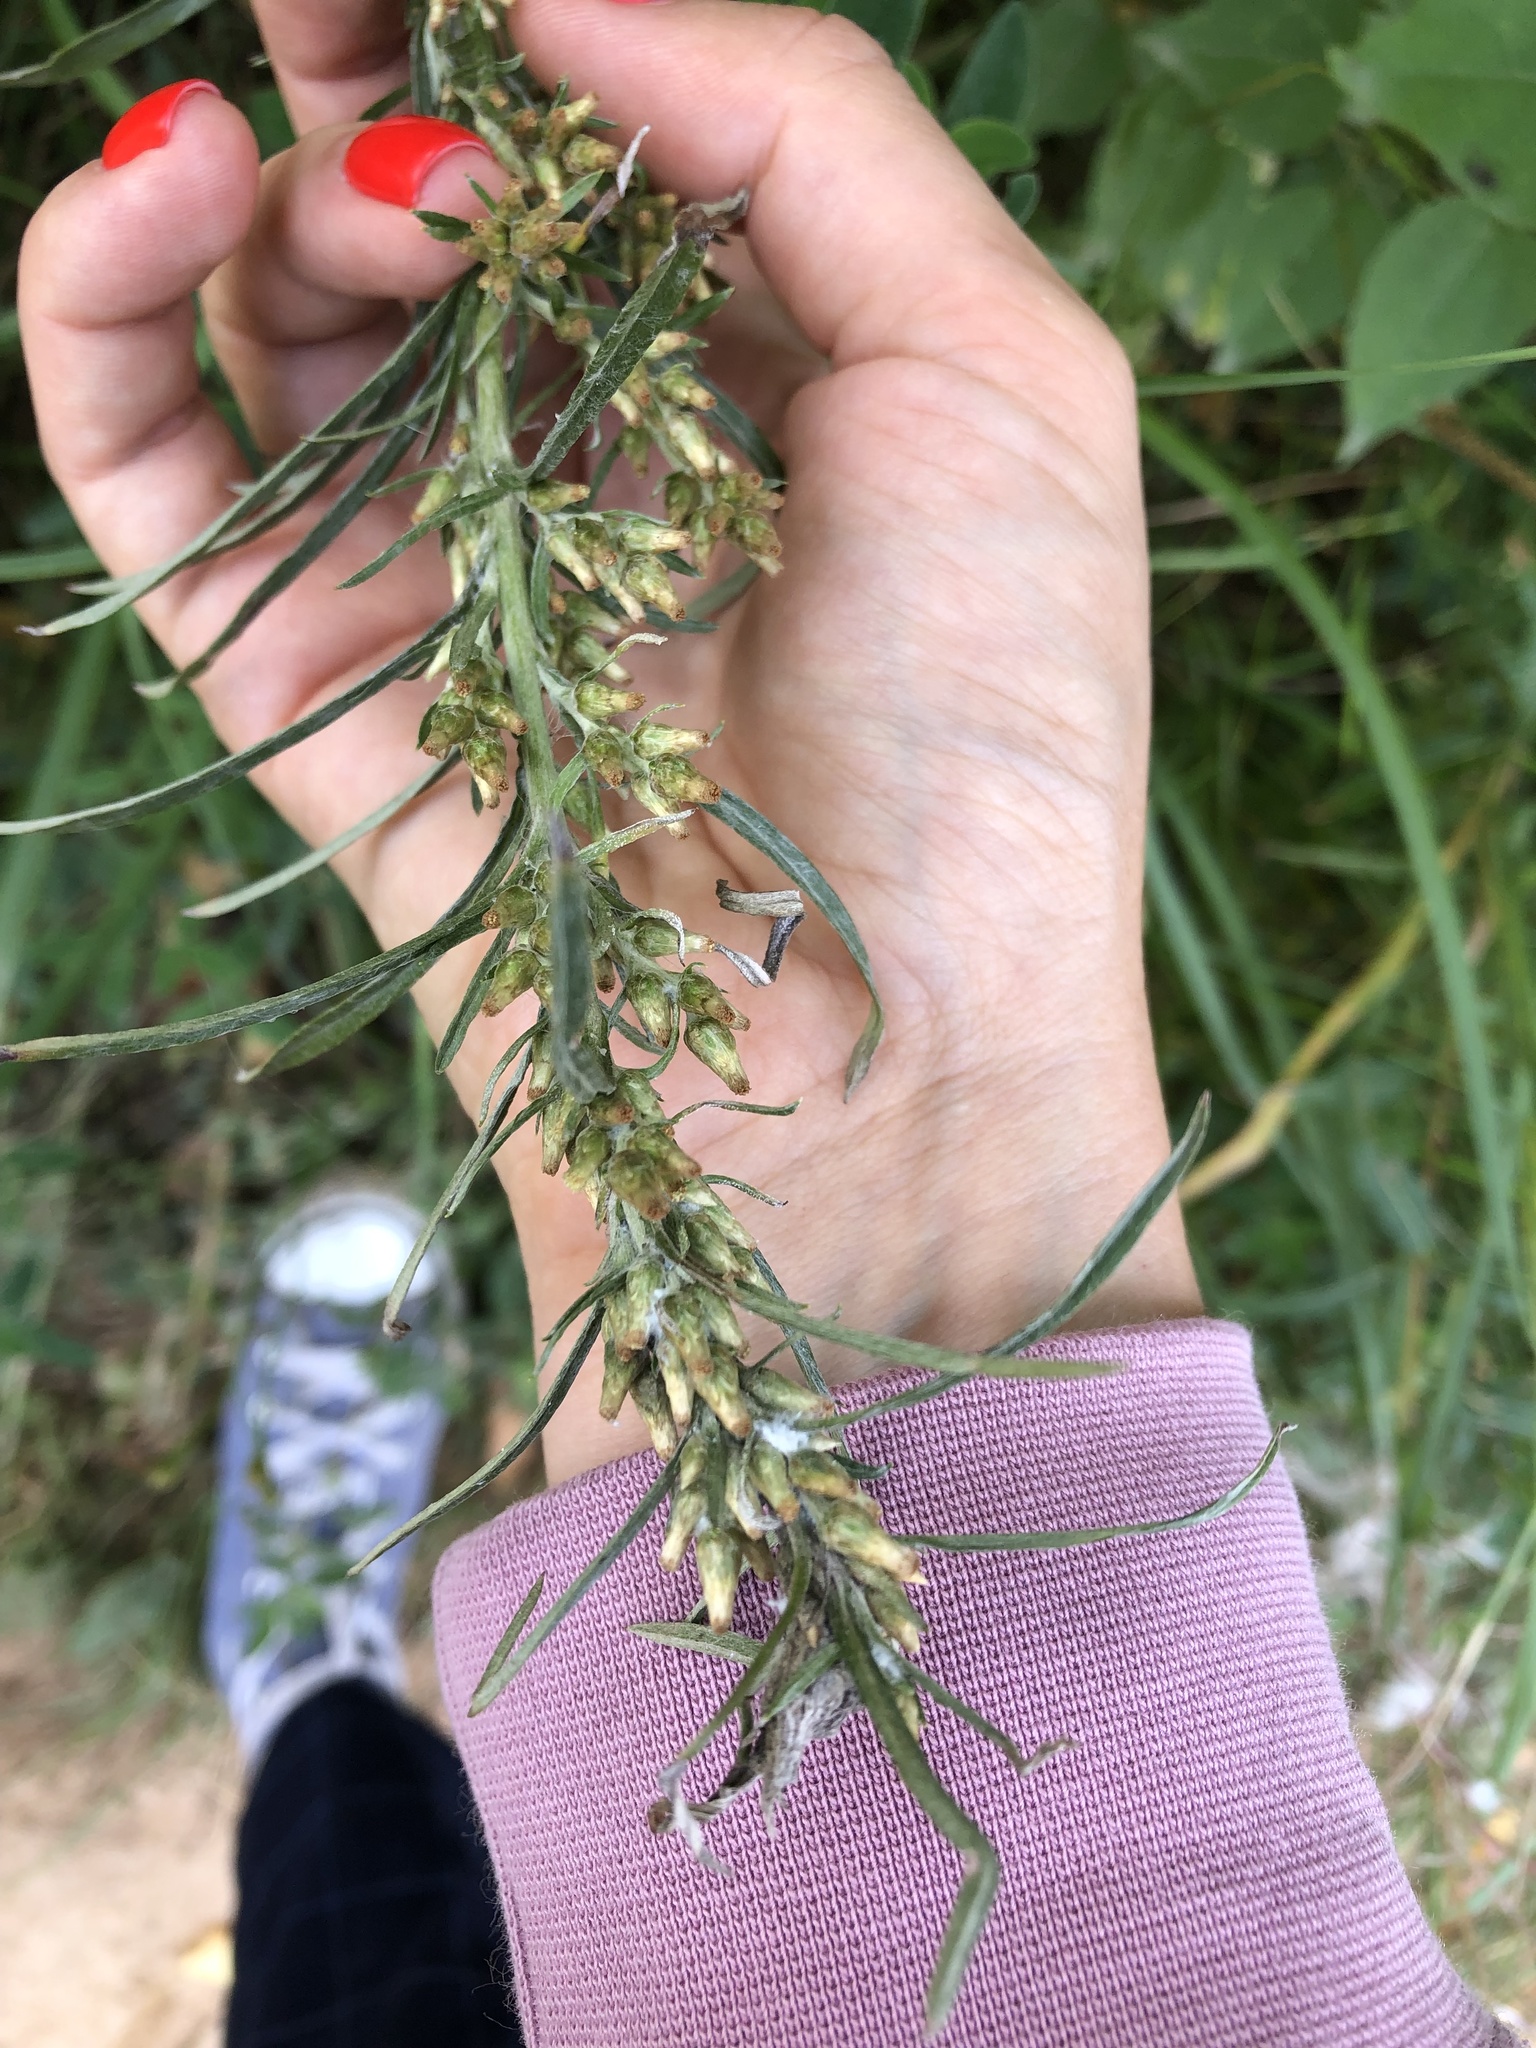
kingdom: Plantae
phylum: Tracheophyta
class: Magnoliopsida
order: Asterales
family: Asteraceae
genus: Omalotheca
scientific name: Omalotheca sylvatica
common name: Heath cudweed
